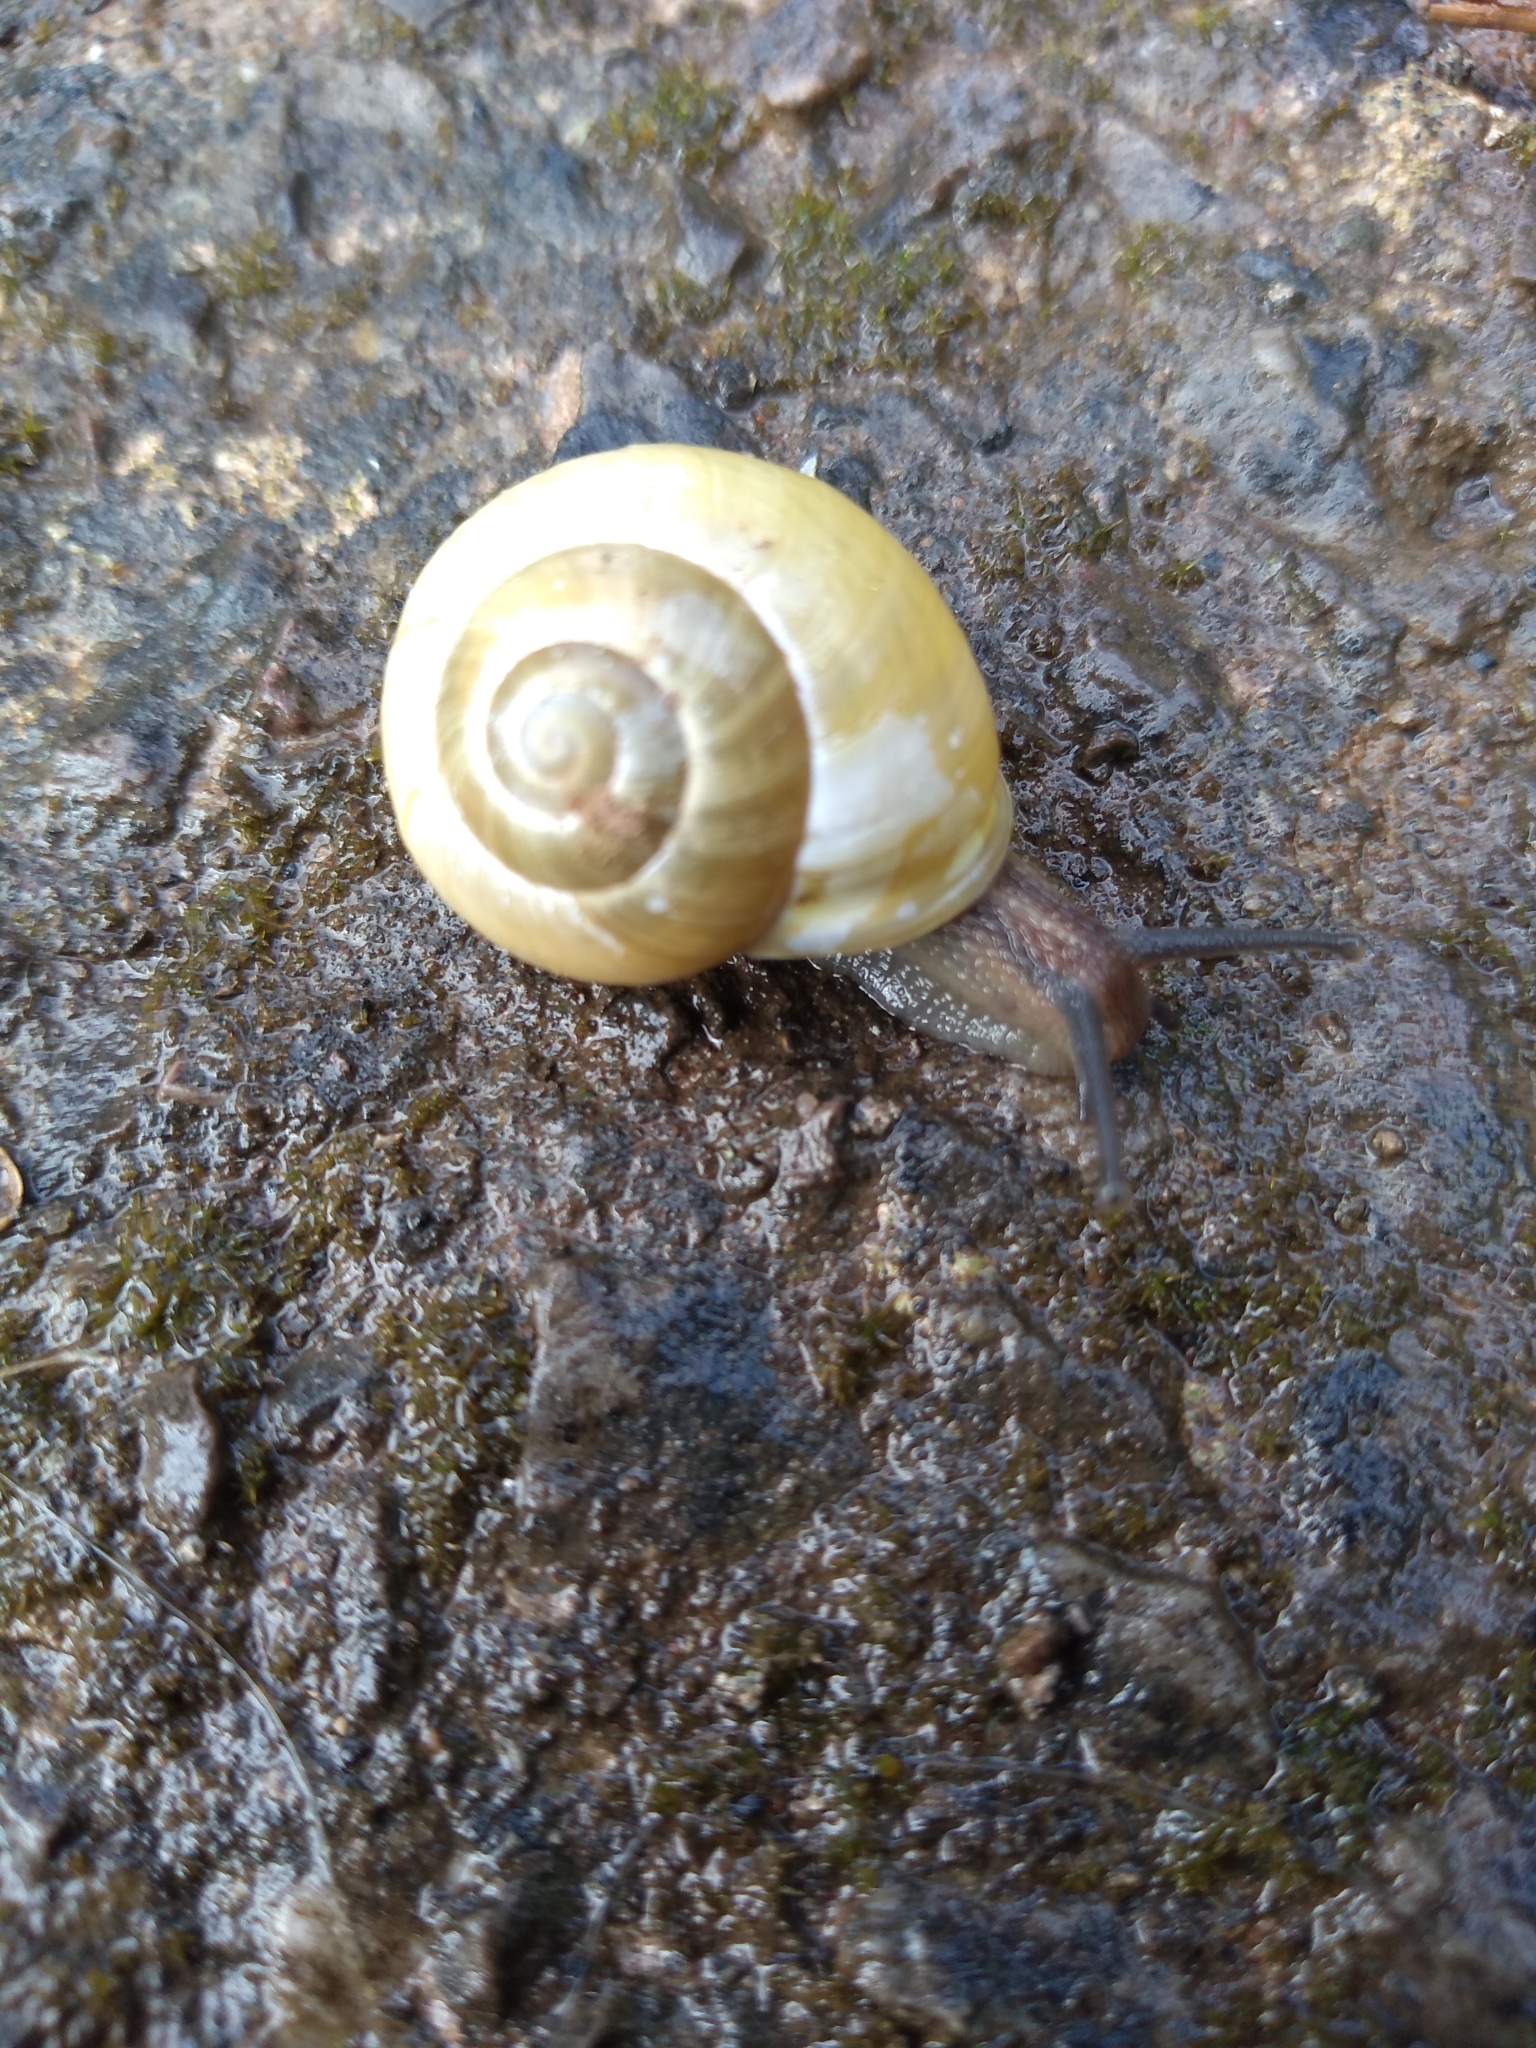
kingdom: Animalia
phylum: Mollusca
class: Gastropoda
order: Stylommatophora
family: Helicidae
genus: Cepaea
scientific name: Cepaea hortensis
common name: White-lip gardensnail
